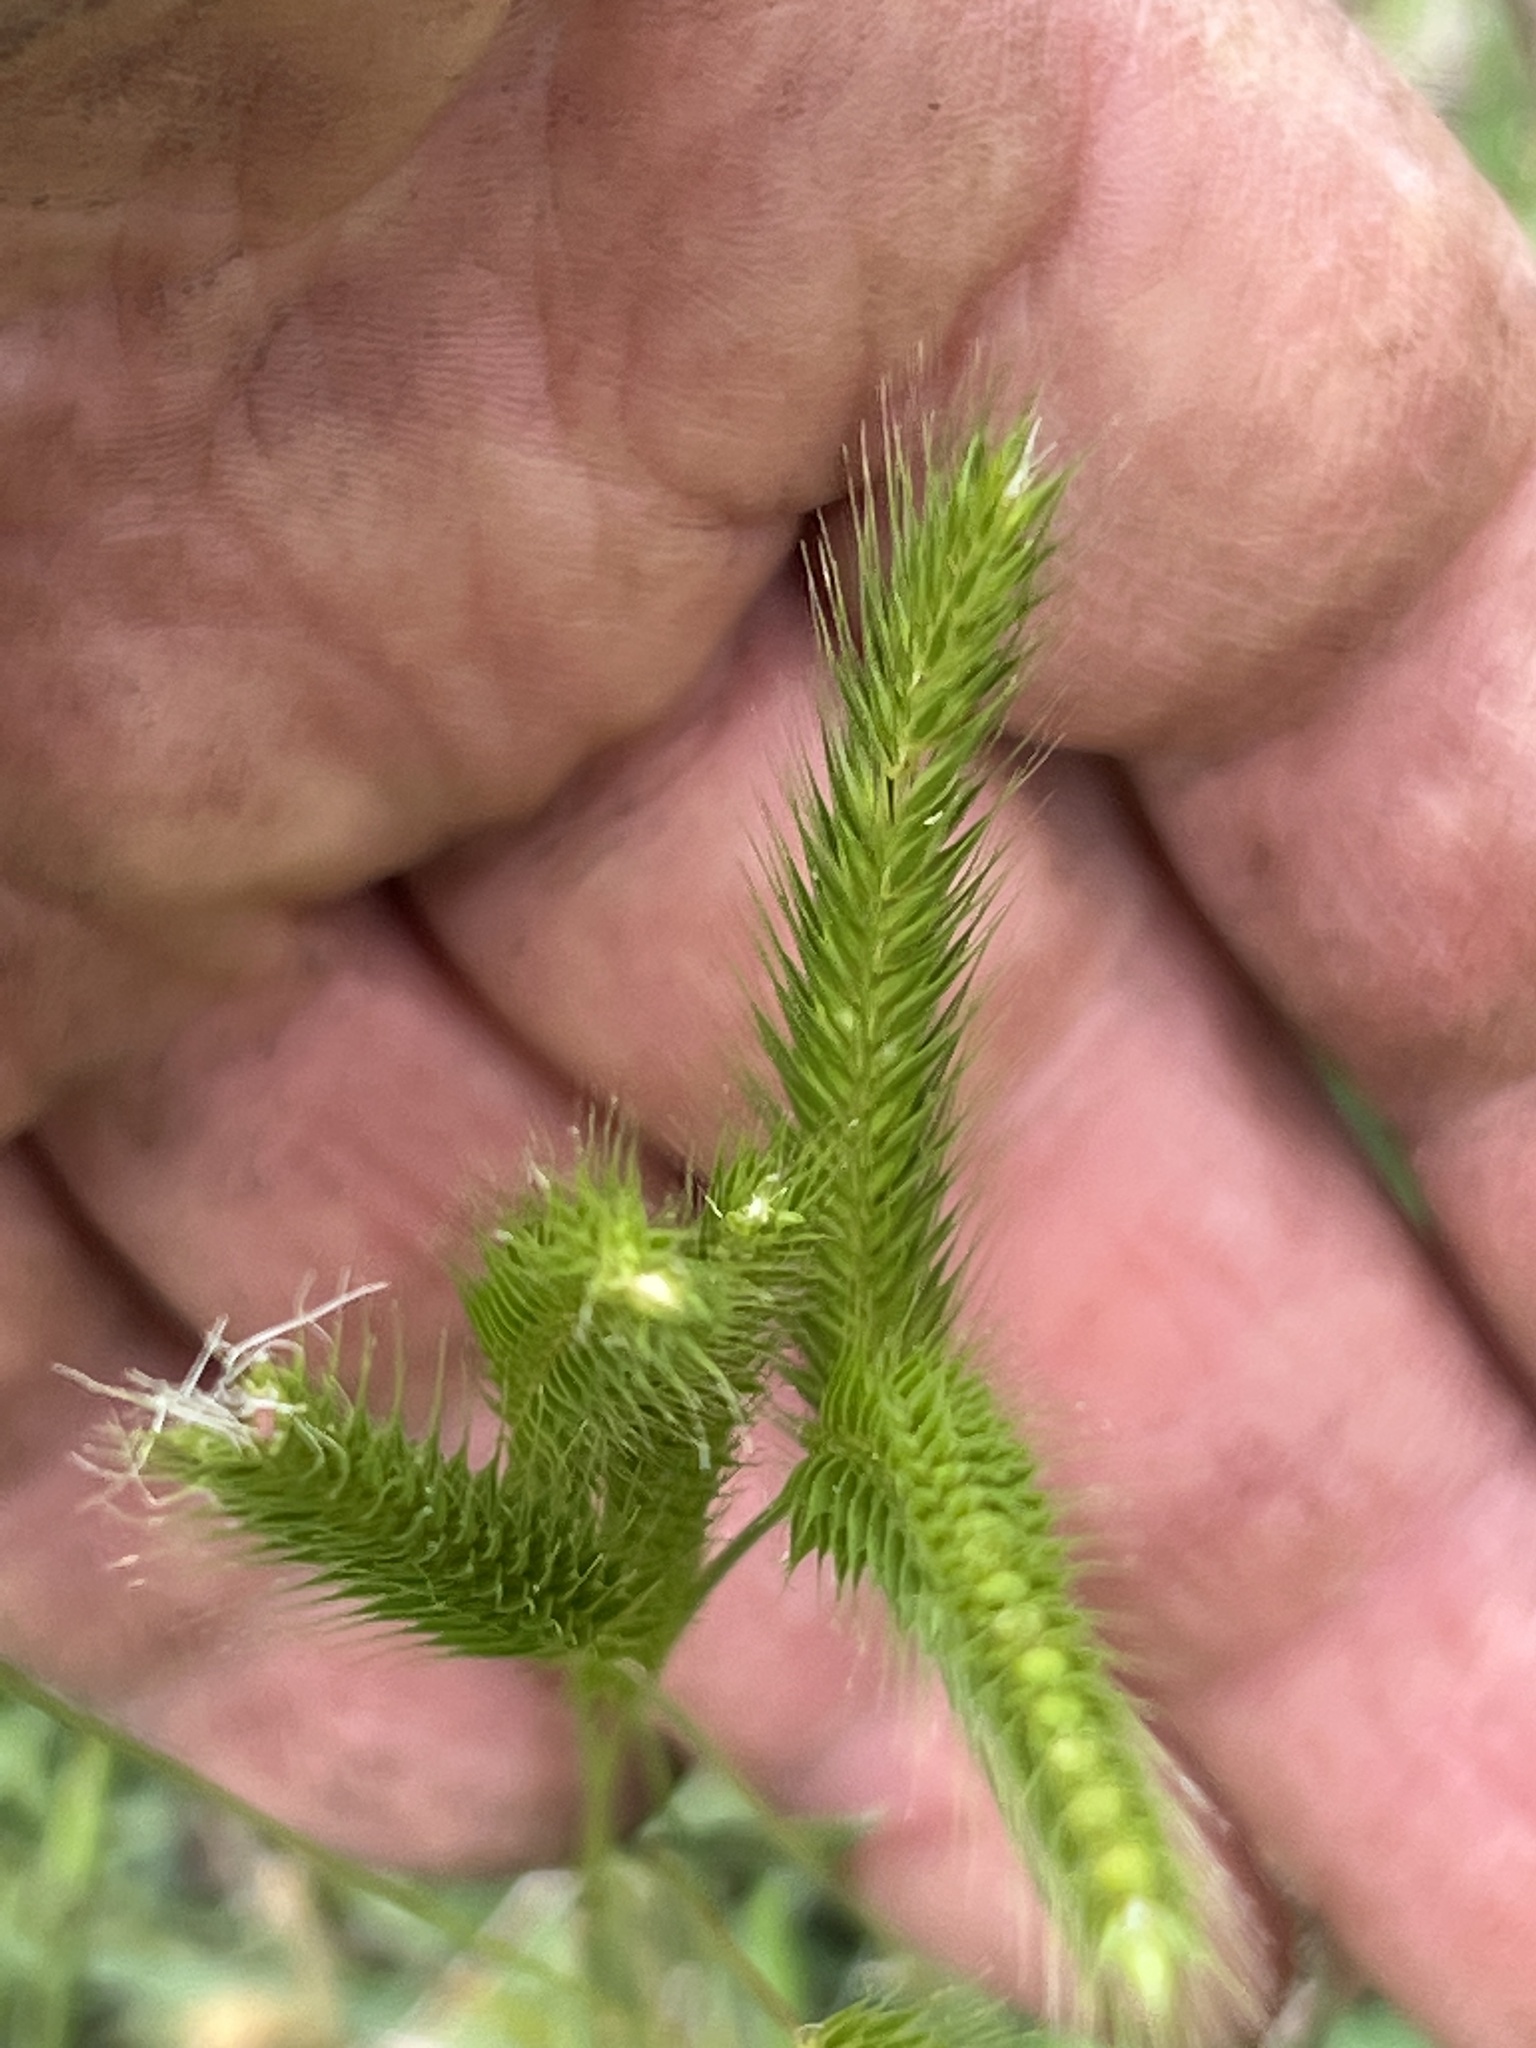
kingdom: Plantae
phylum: Tracheophyta
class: Liliopsida
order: Poales
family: Poaceae
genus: Hordeum
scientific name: Hordeum pusillum
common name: Little barley
